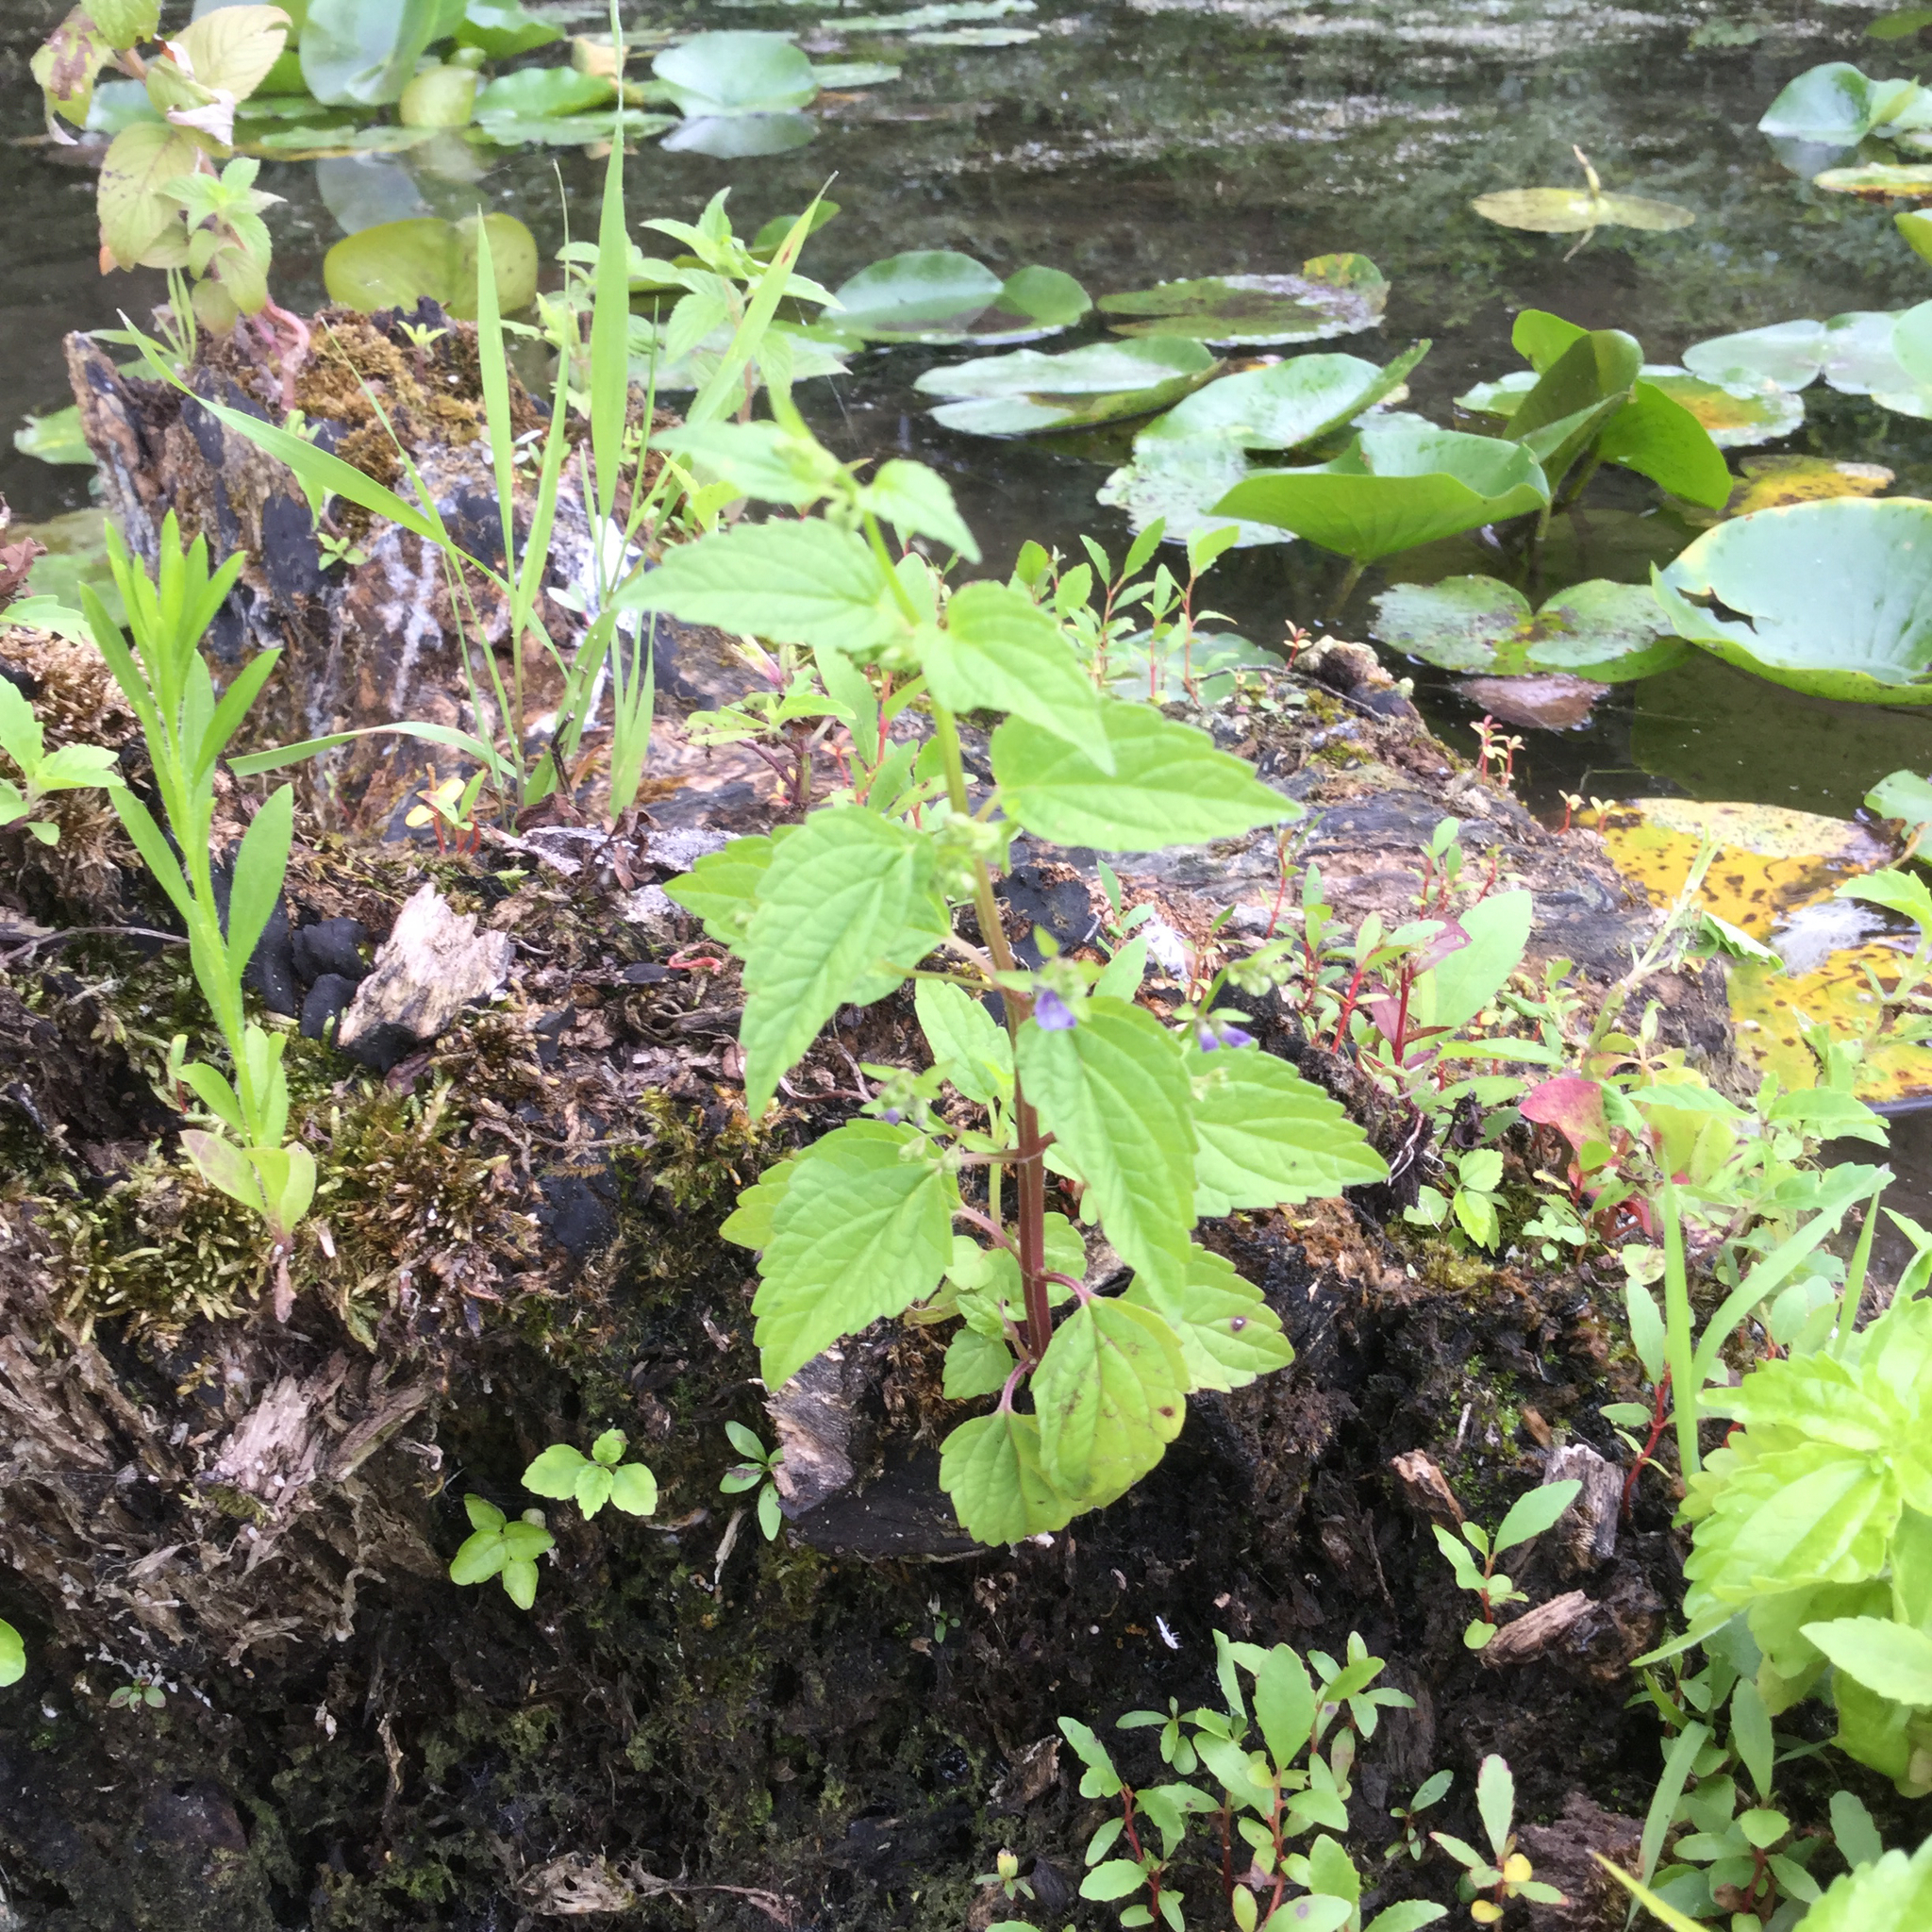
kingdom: Plantae
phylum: Tracheophyta
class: Magnoliopsida
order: Lamiales
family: Lamiaceae
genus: Scutellaria
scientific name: Scutellaria lateriflora
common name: Blue skullcap
